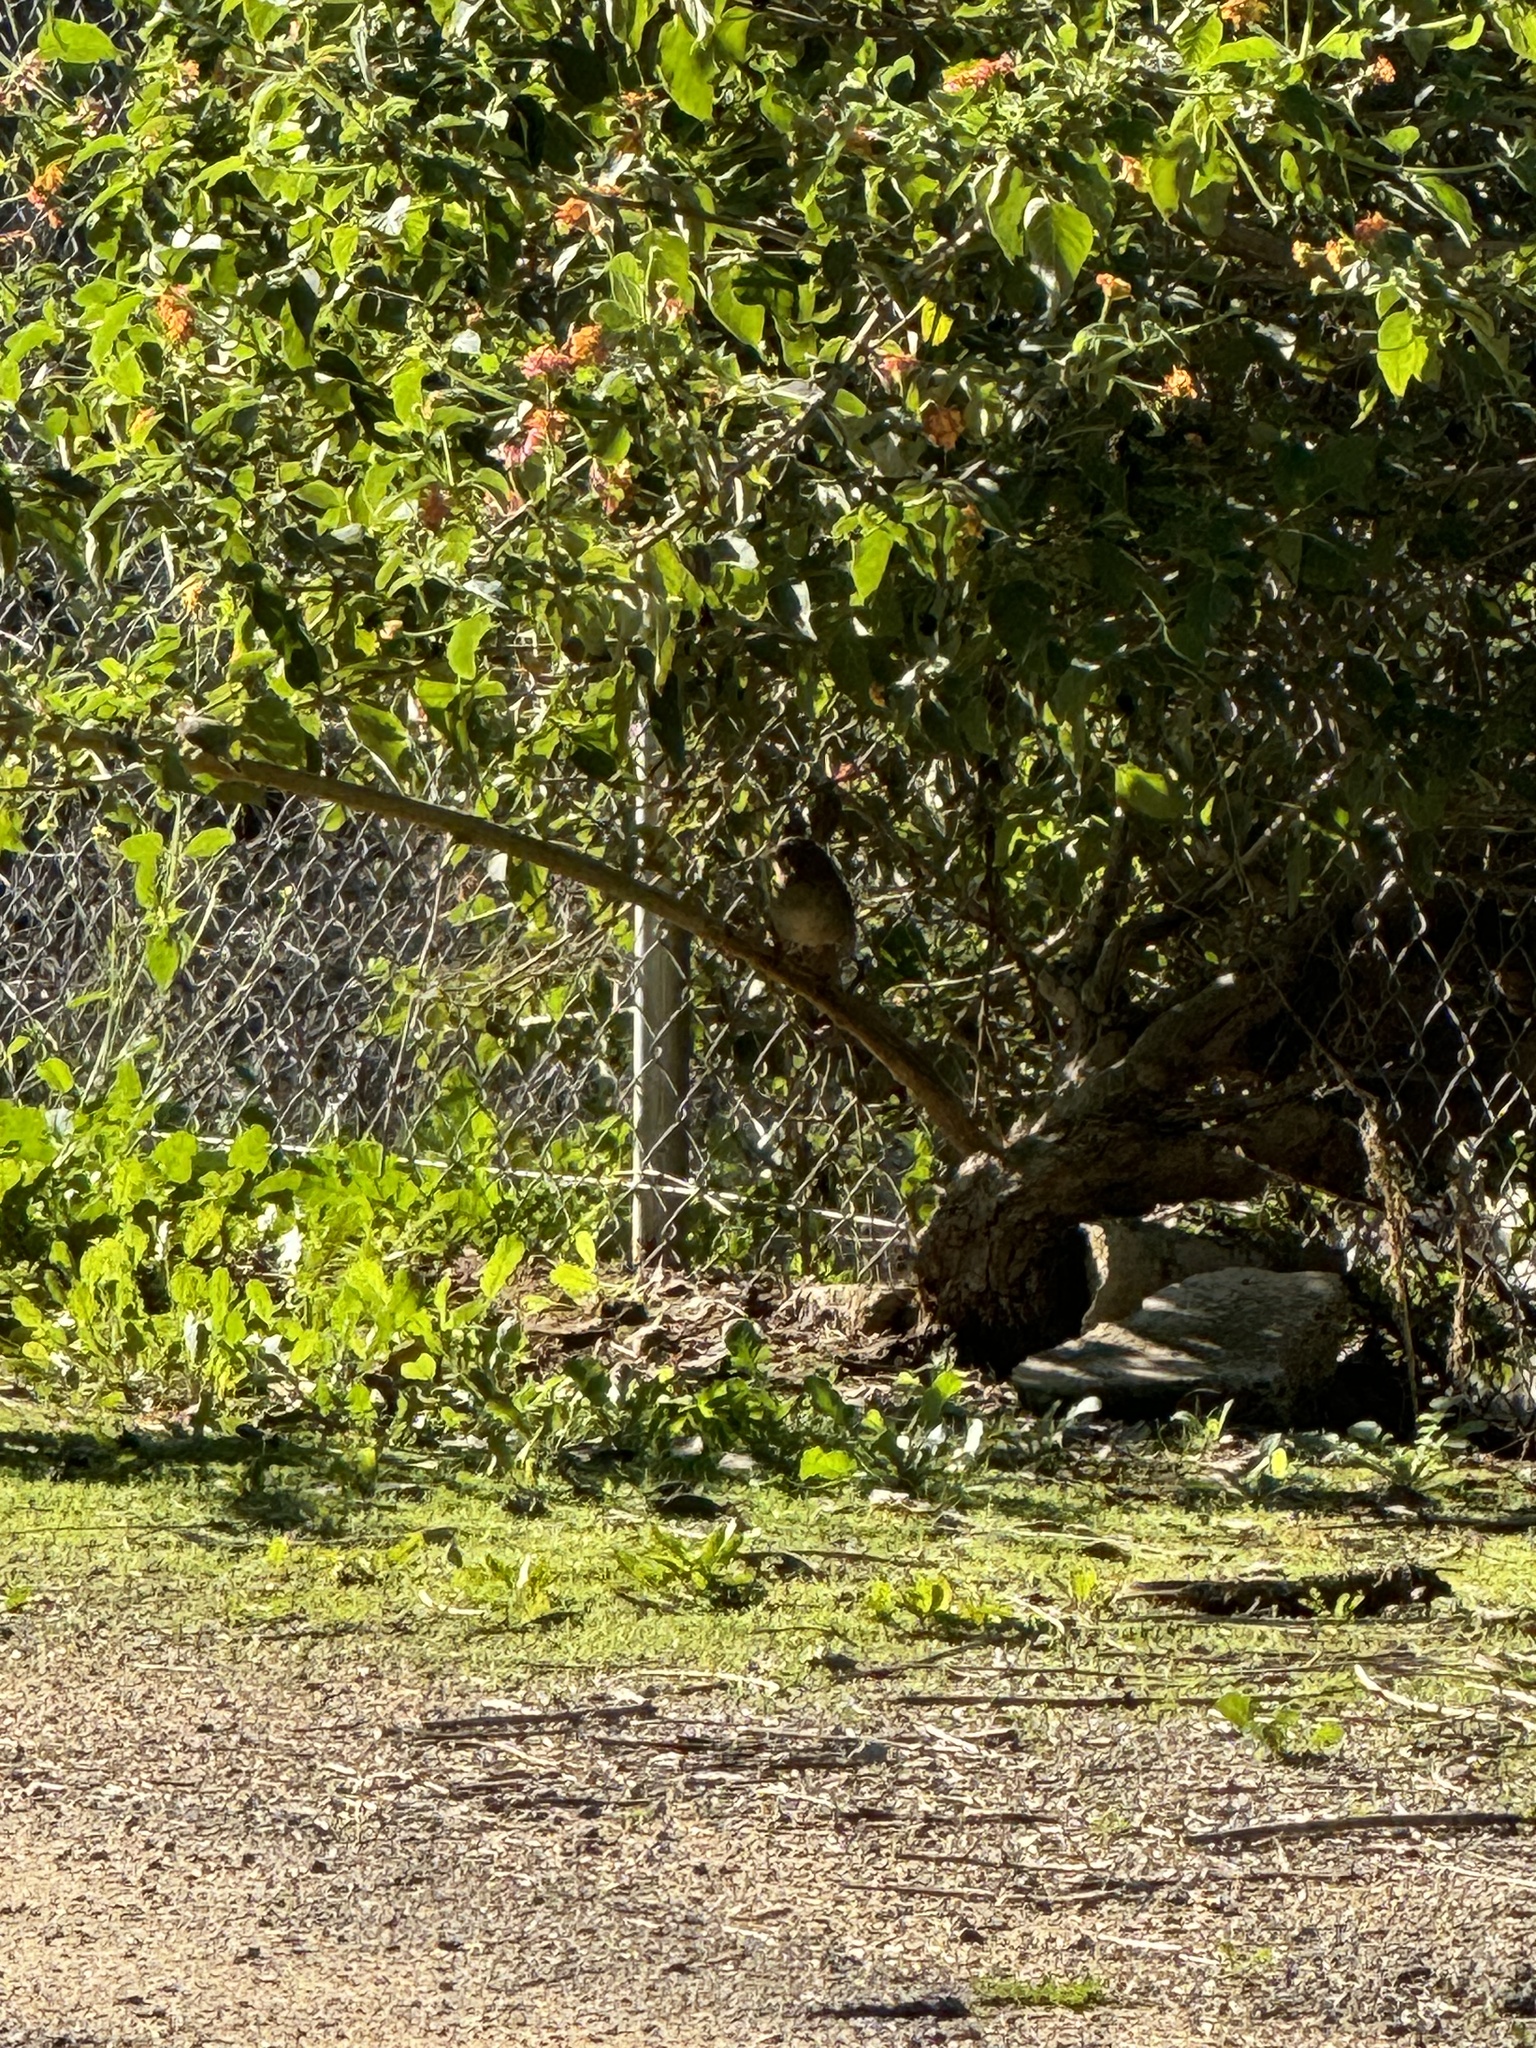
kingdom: Animalia
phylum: Chordata
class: Aves
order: Passeriformes
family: Passerellidae
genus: Melozone
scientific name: Melozone crissalis
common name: California towhee
